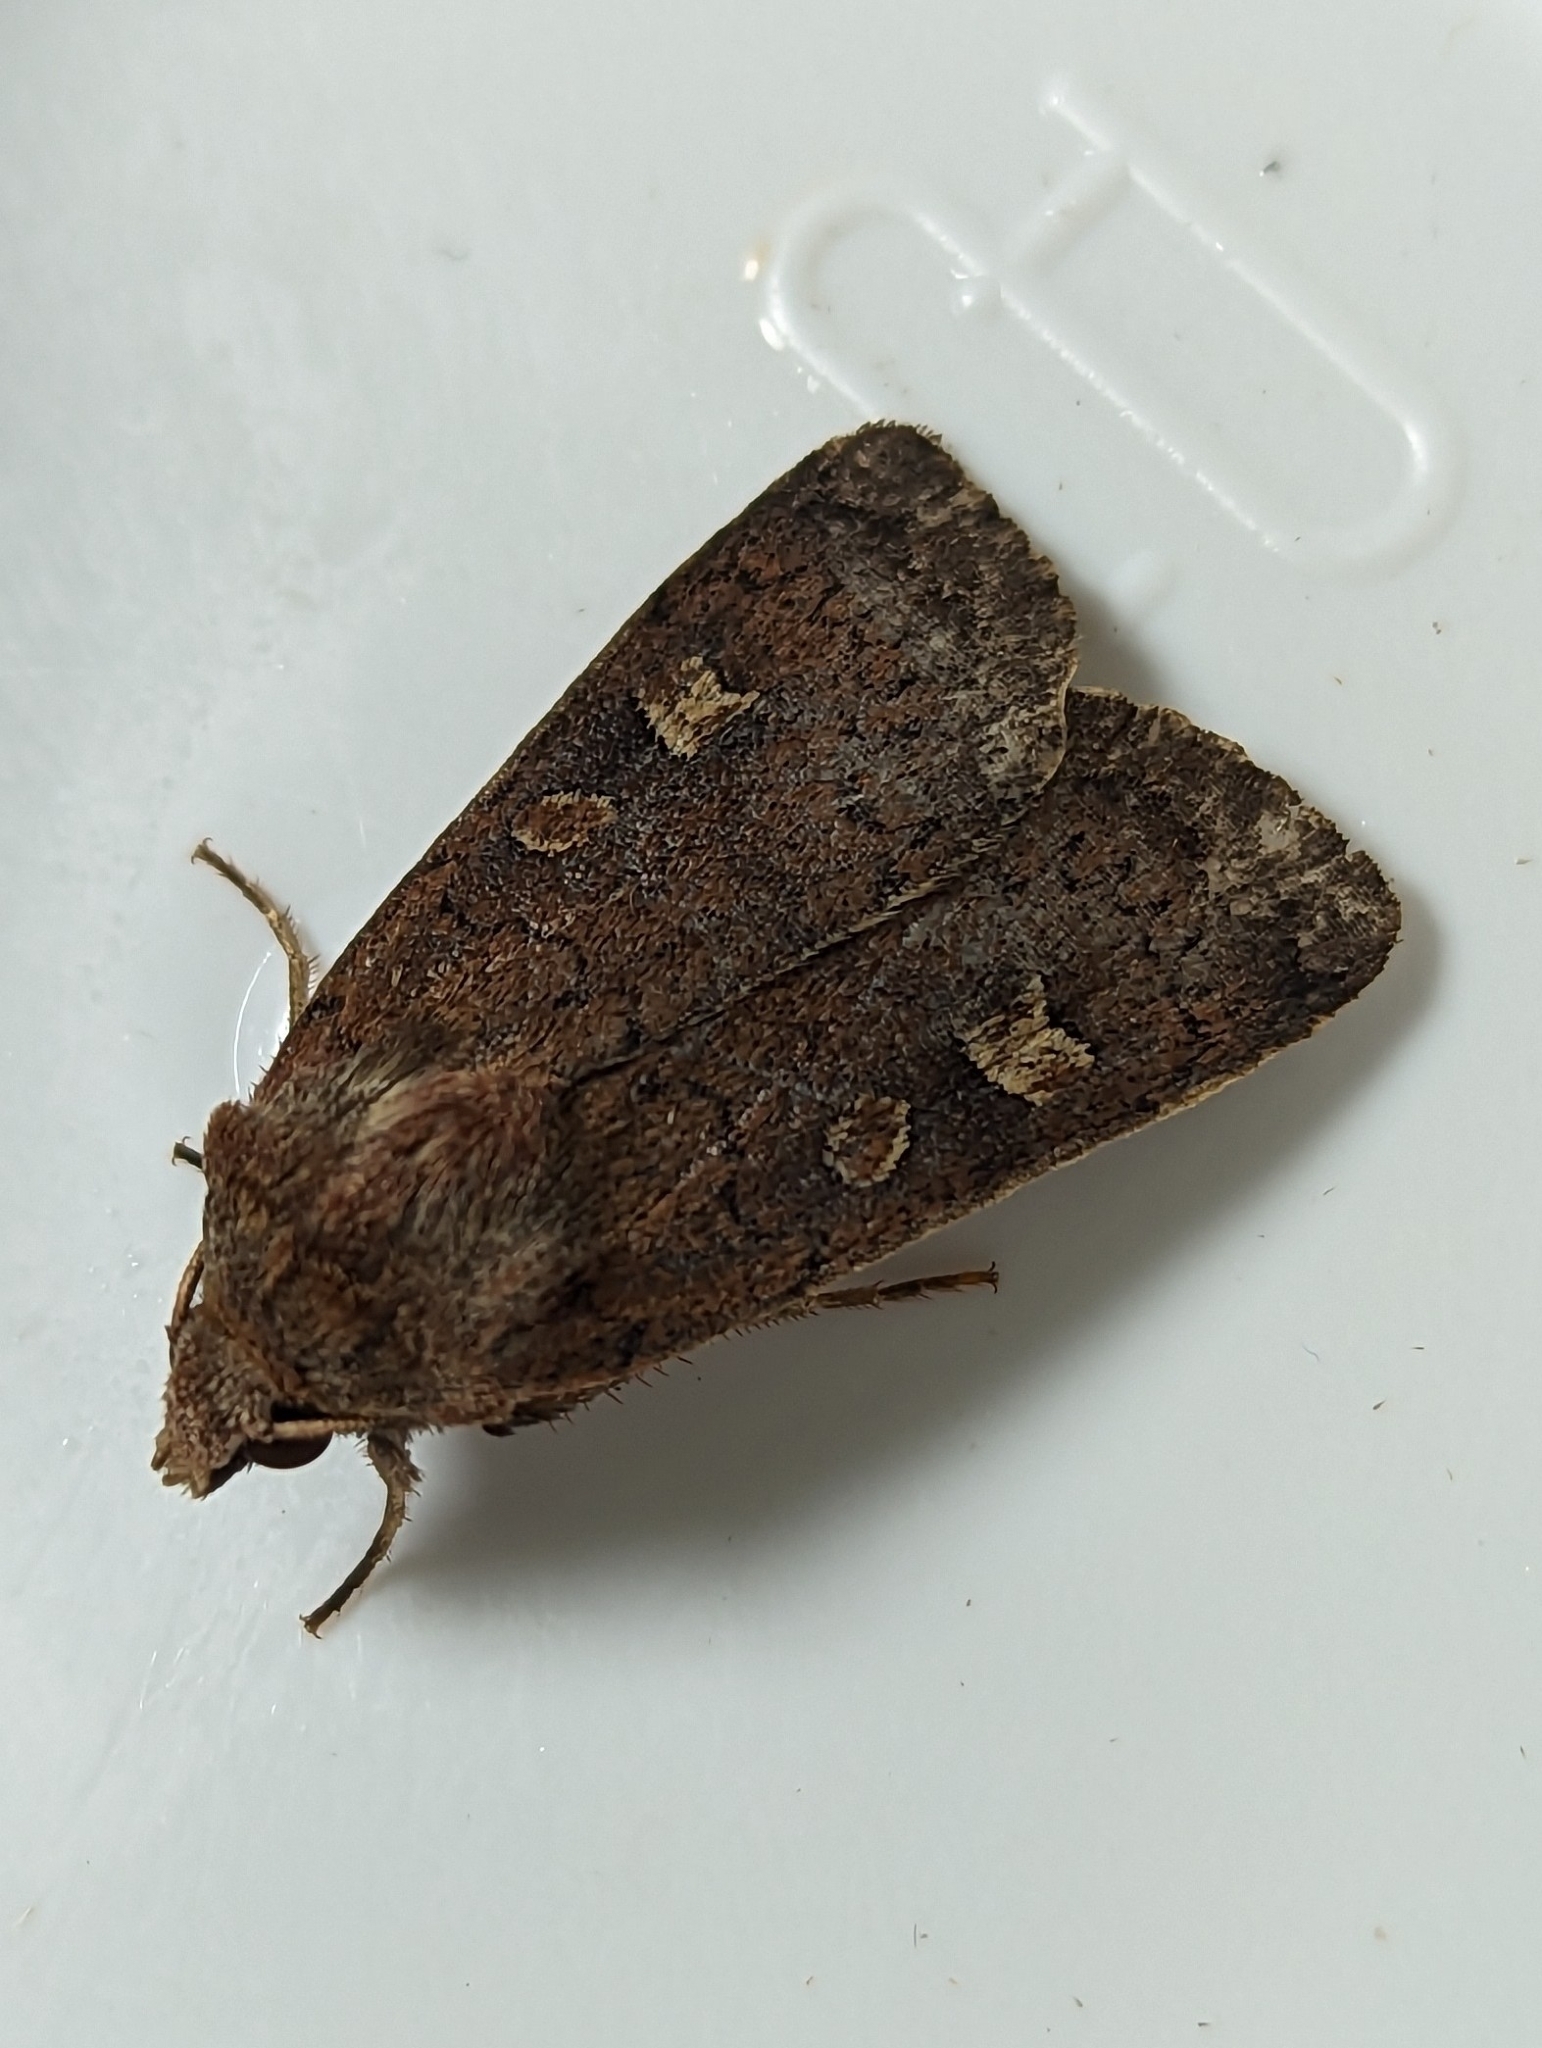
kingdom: Animalia
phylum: Arthropoda
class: Insecta
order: Lepidoptera
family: Noctuidae
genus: Xestia
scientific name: Xestia xanthographa
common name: Square-spot rustic
